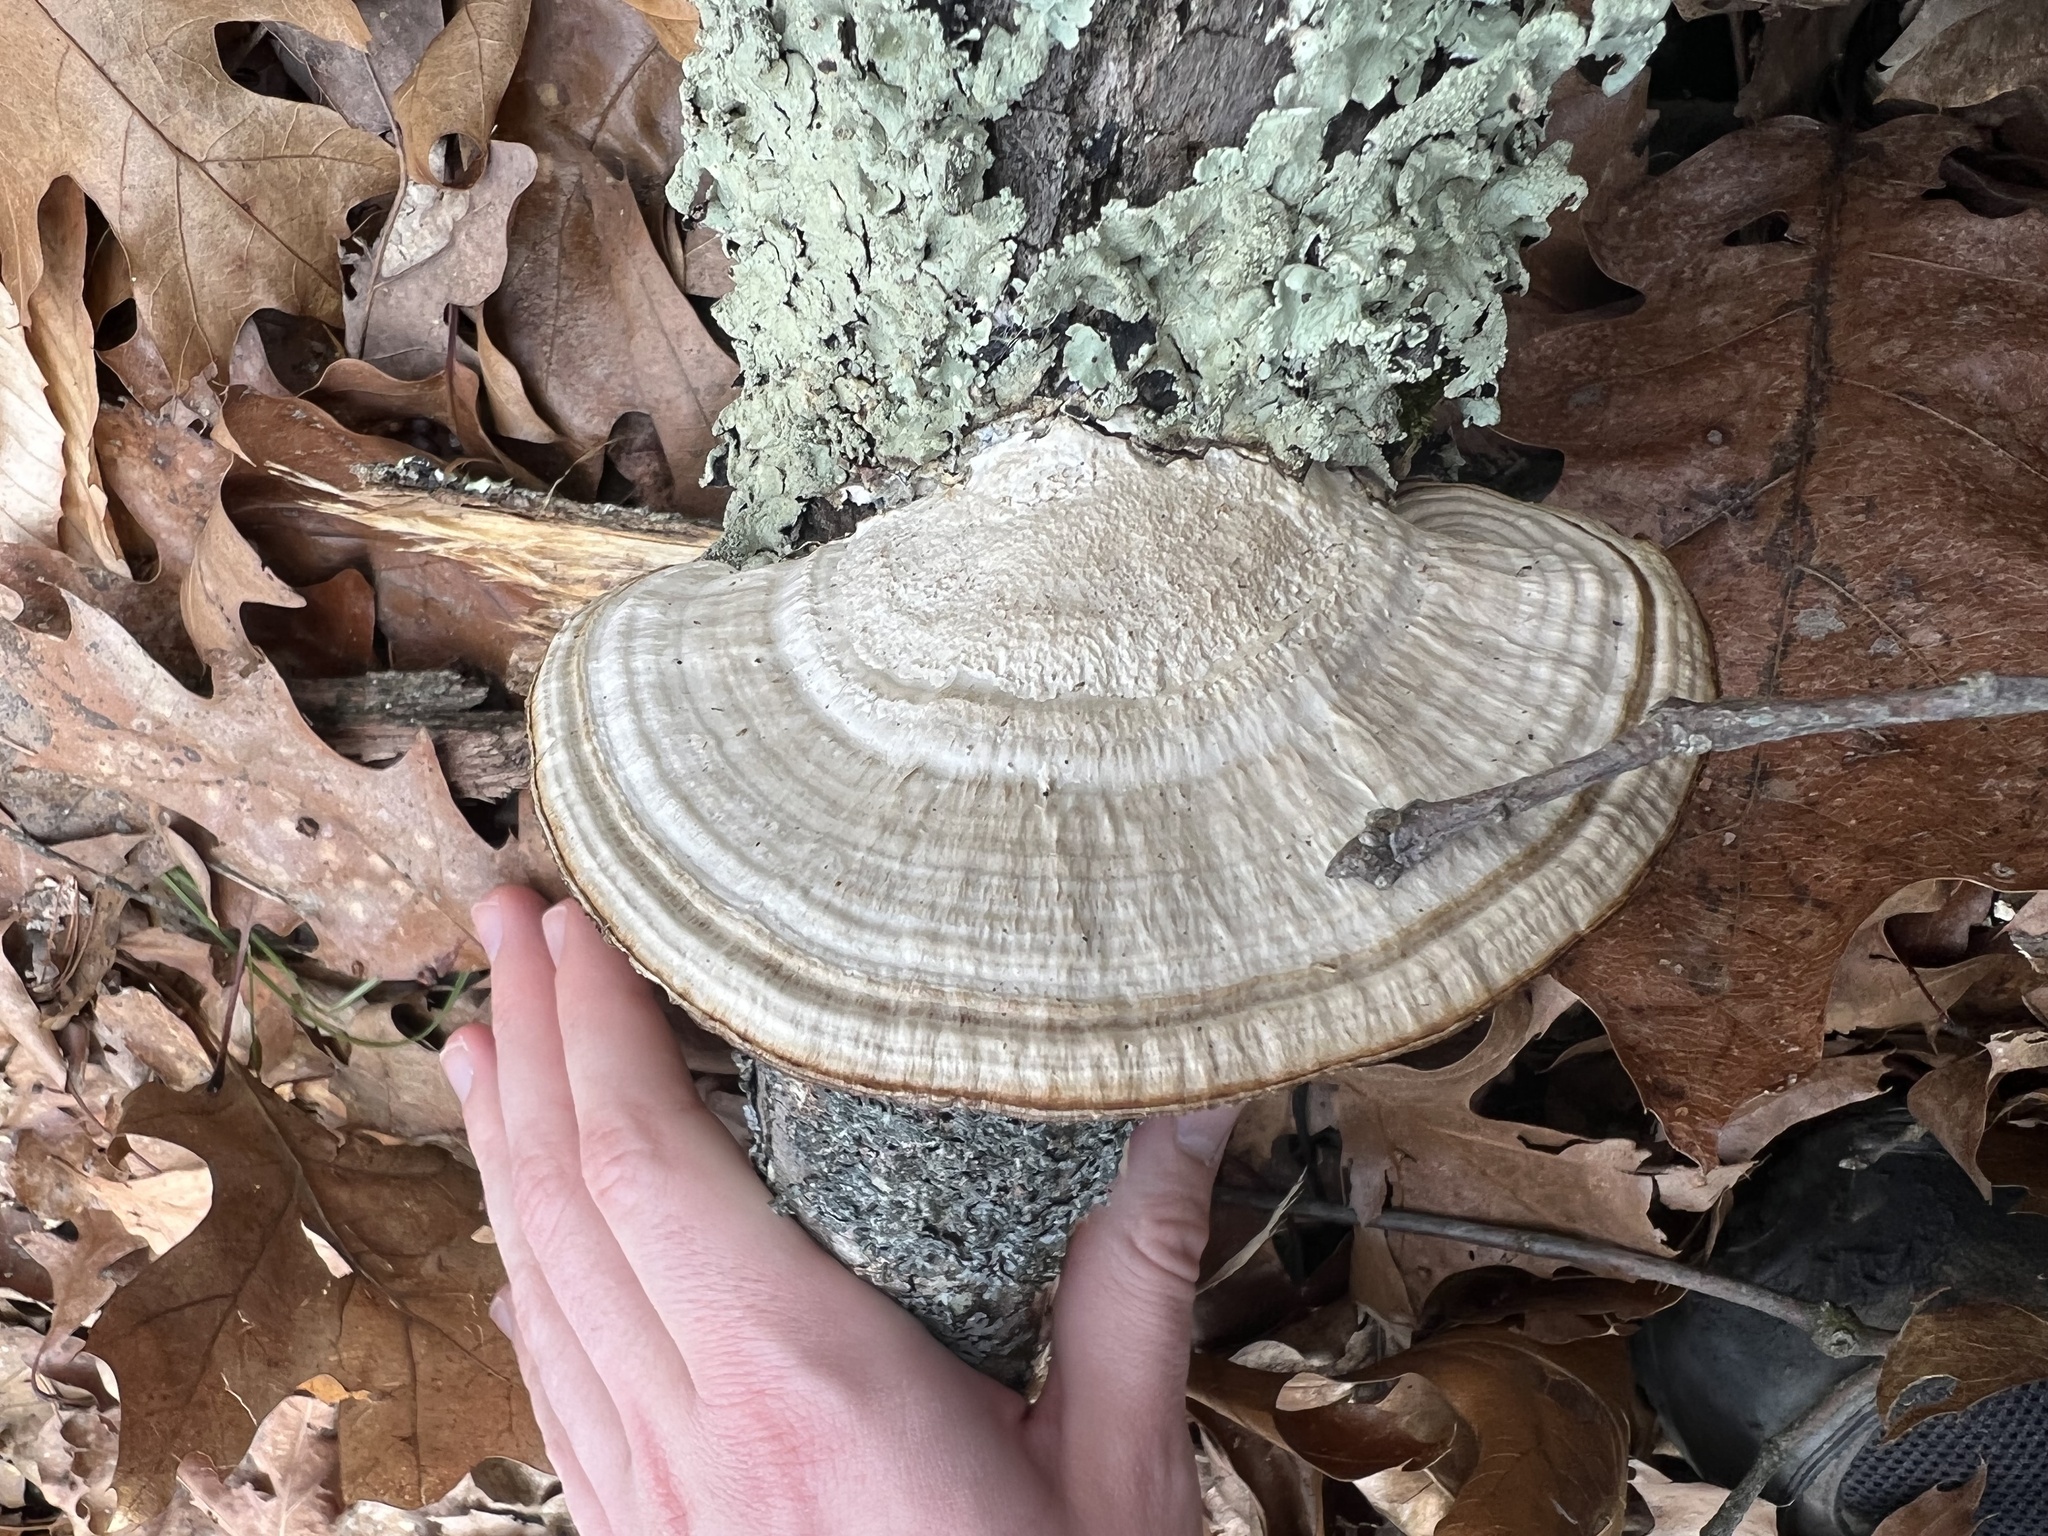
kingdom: Fungi
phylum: Basidiomycota
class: Agaricomycetes
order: Polyporales
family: Polyporaceae
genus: Daedaleopsis
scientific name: Daedaleopsis confragosa
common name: Blushing bracket
